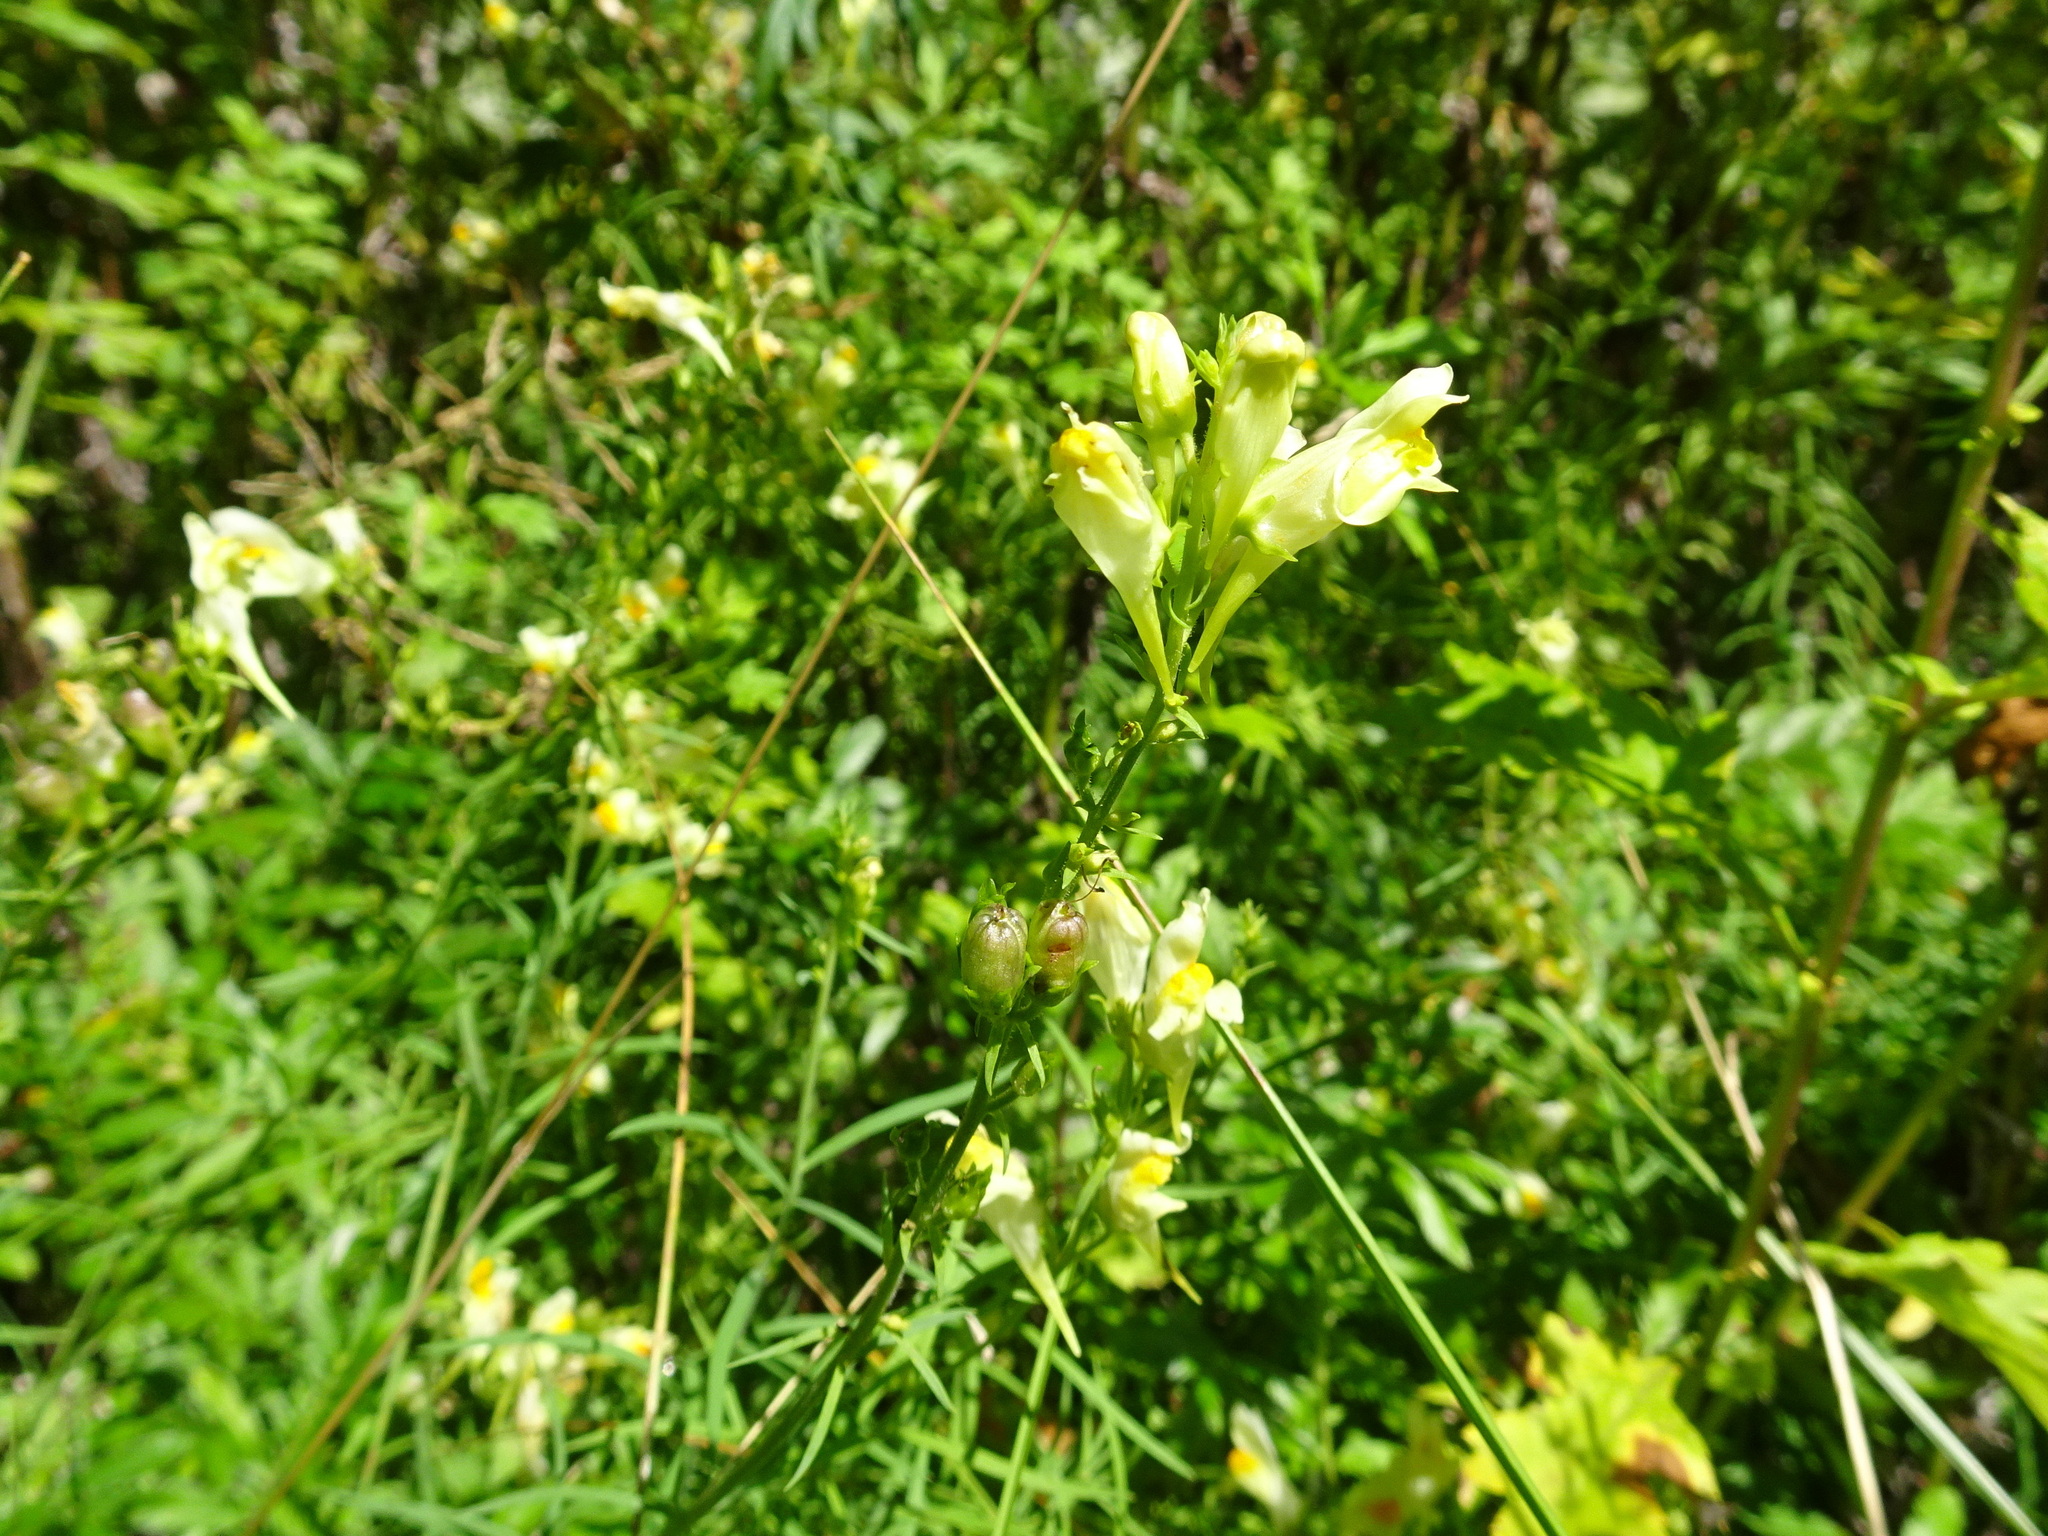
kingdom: Plantae
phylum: Tracheophyta
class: Magnoliopsida
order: Lamiales
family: Plantaginaceae
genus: Linaria
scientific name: Linaria vulgaris
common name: Butter and eggs
